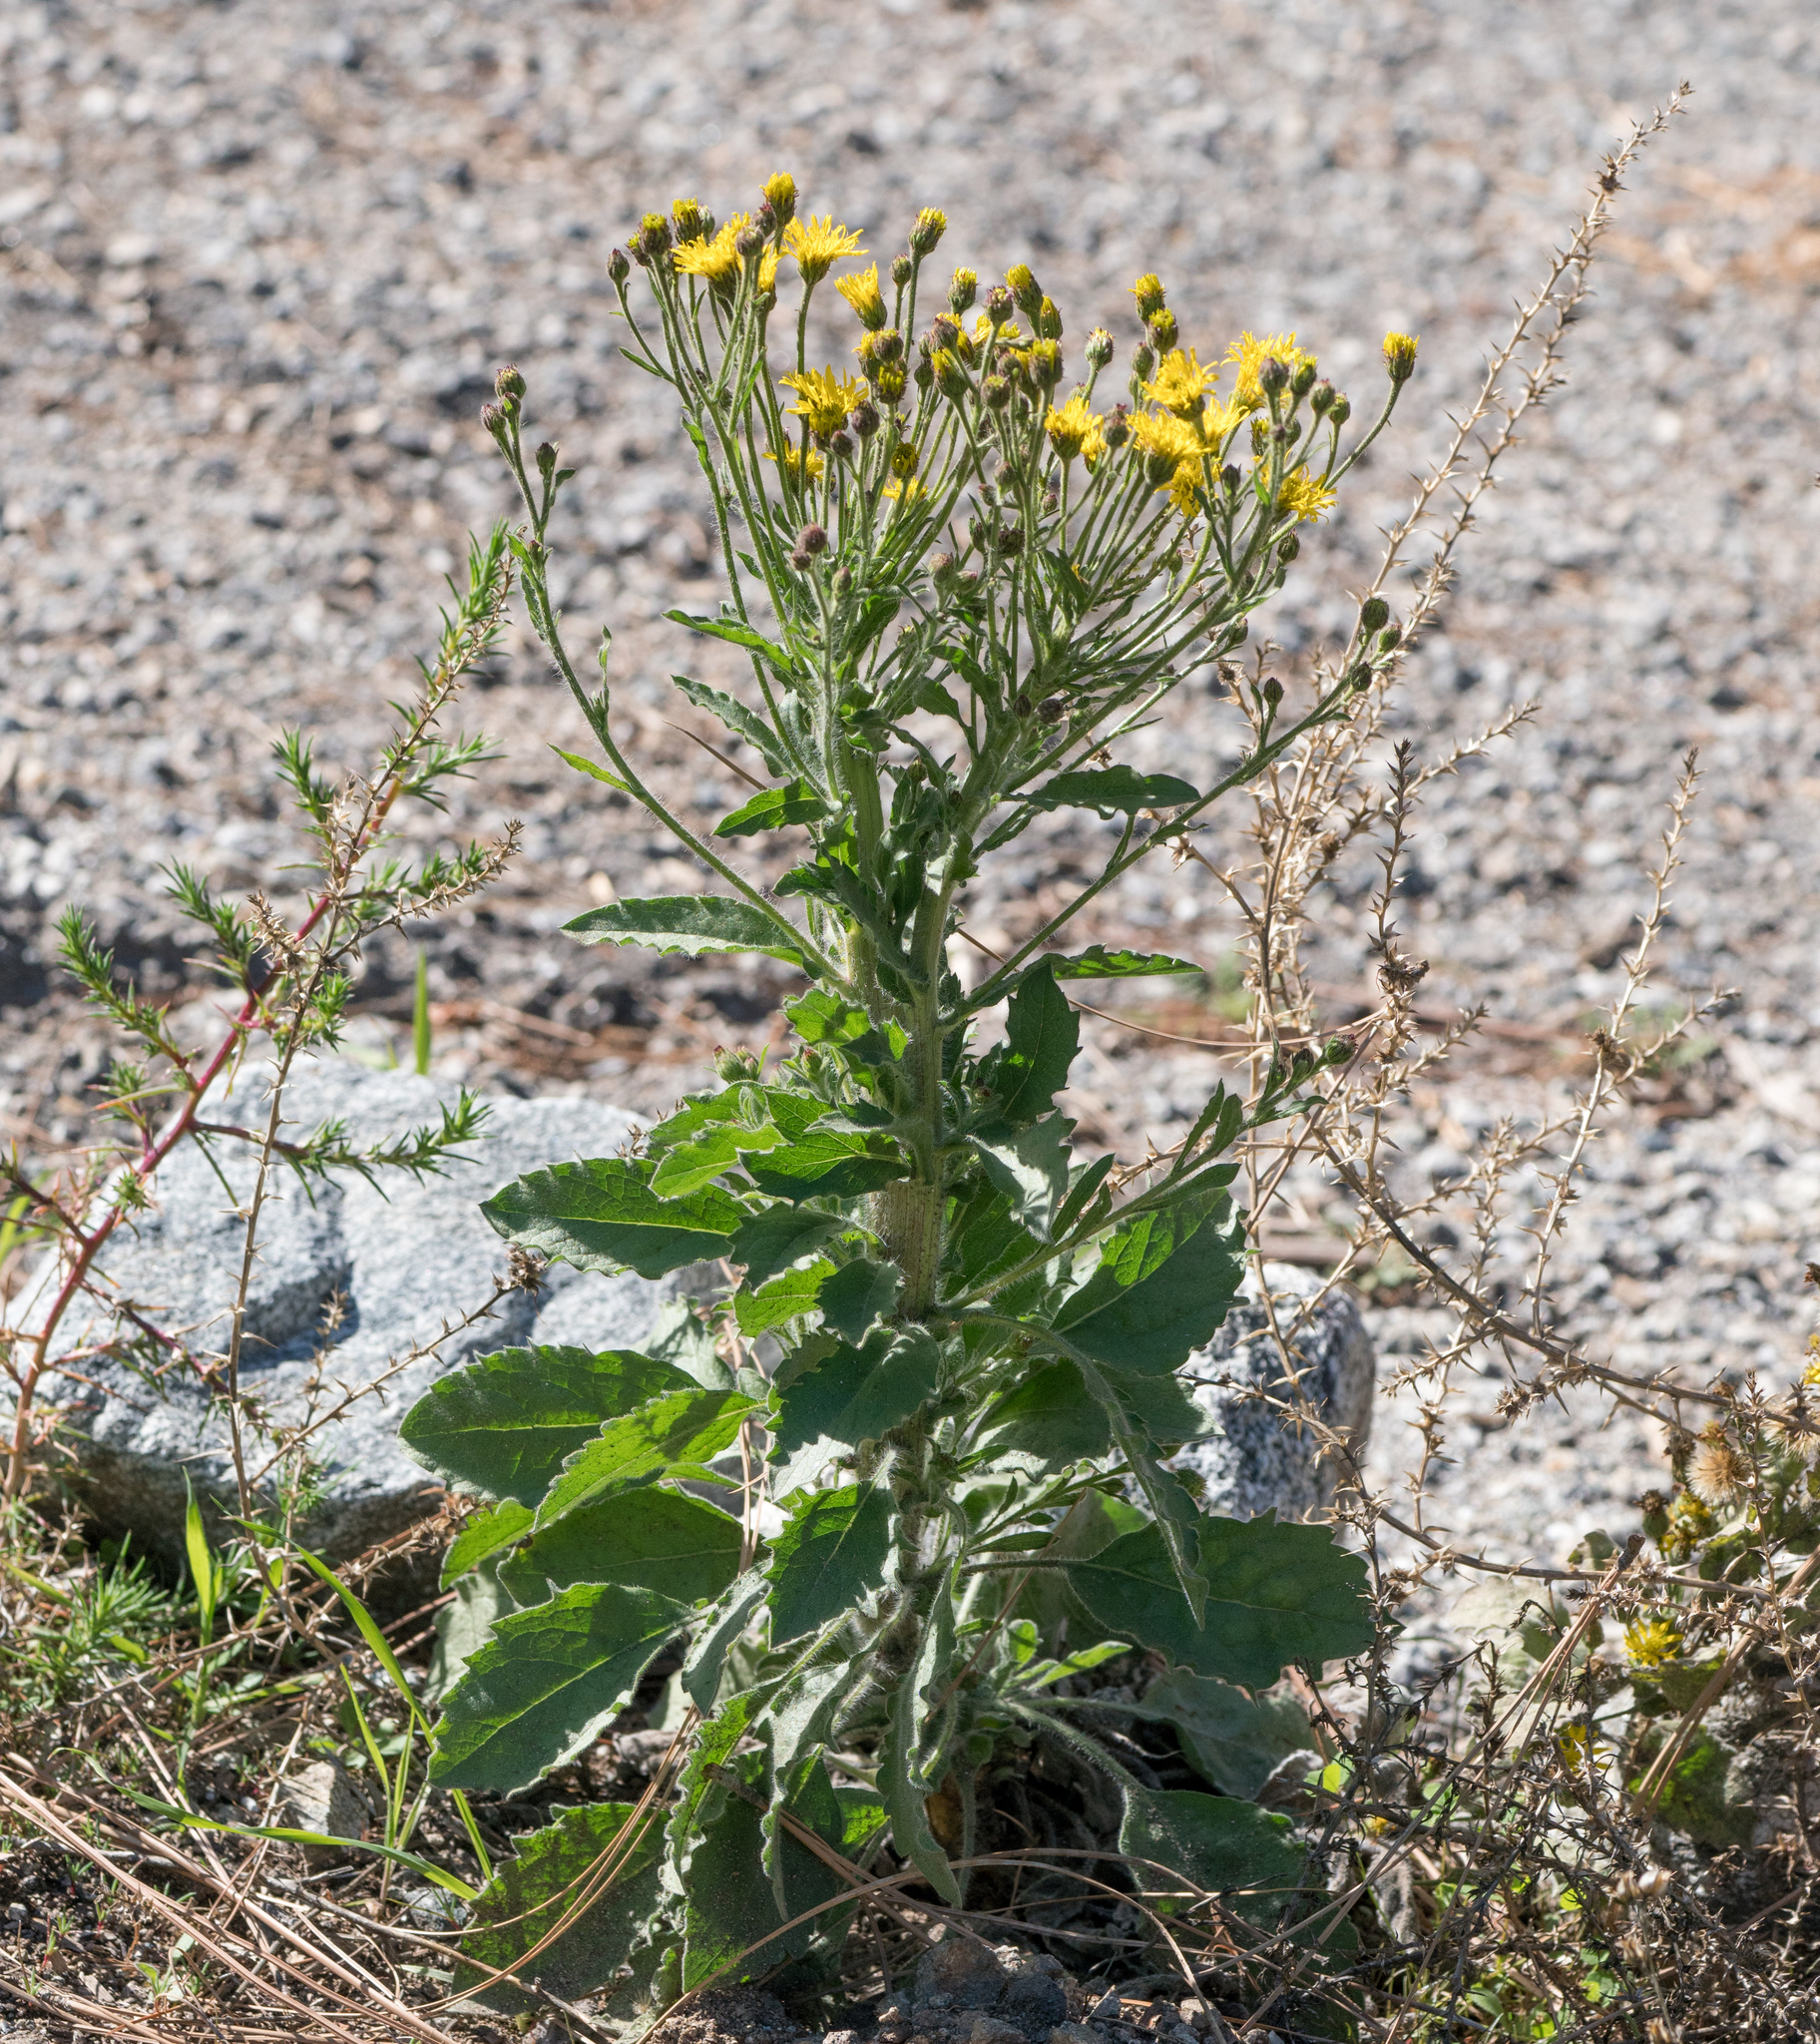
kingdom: Plantae
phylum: Tracheophyta
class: Magnoliopsida
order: Asterales
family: Asteraceae
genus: Heterotheca
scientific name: Heterotheca grandiflora
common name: Telegraphweed
